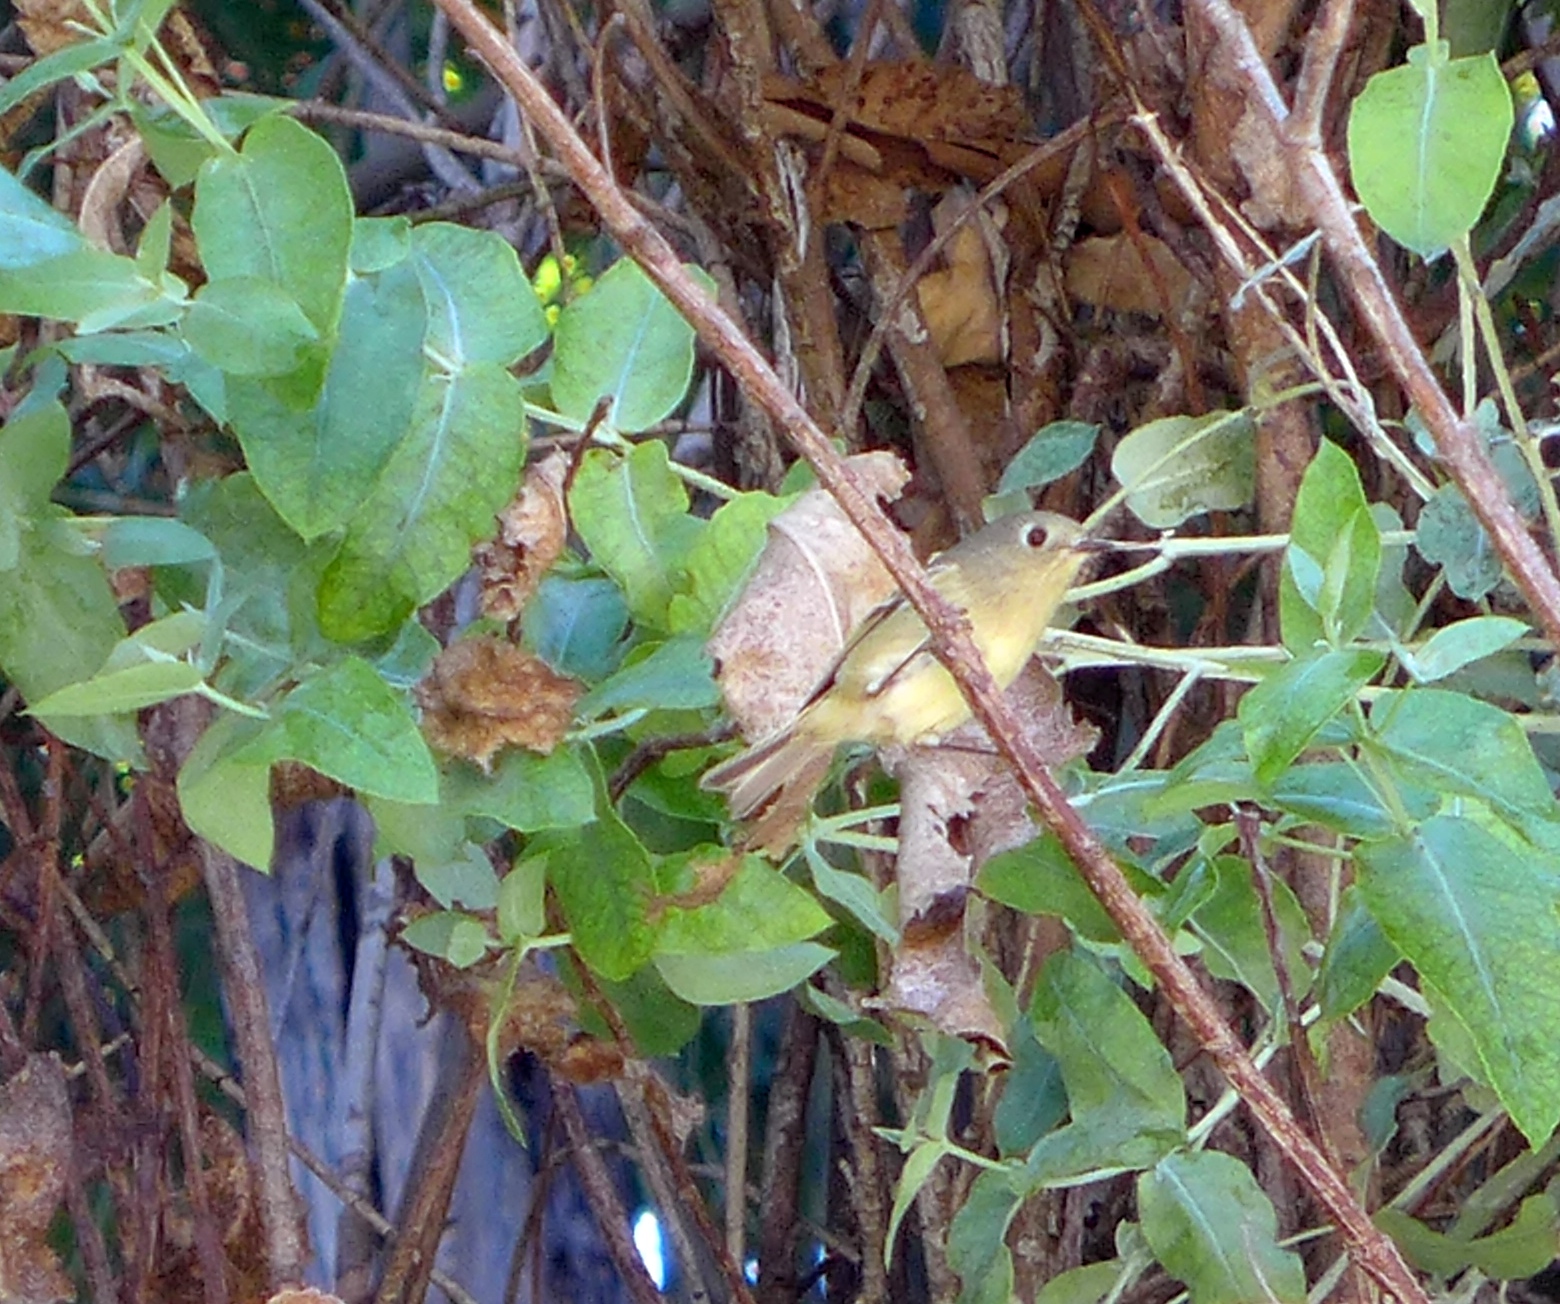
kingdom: Animalia
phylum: Chordata
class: Aves
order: Passeriformes
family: Regulidae
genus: Regulus
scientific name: Regulus calendula
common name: Ruby-crowned kinglet
